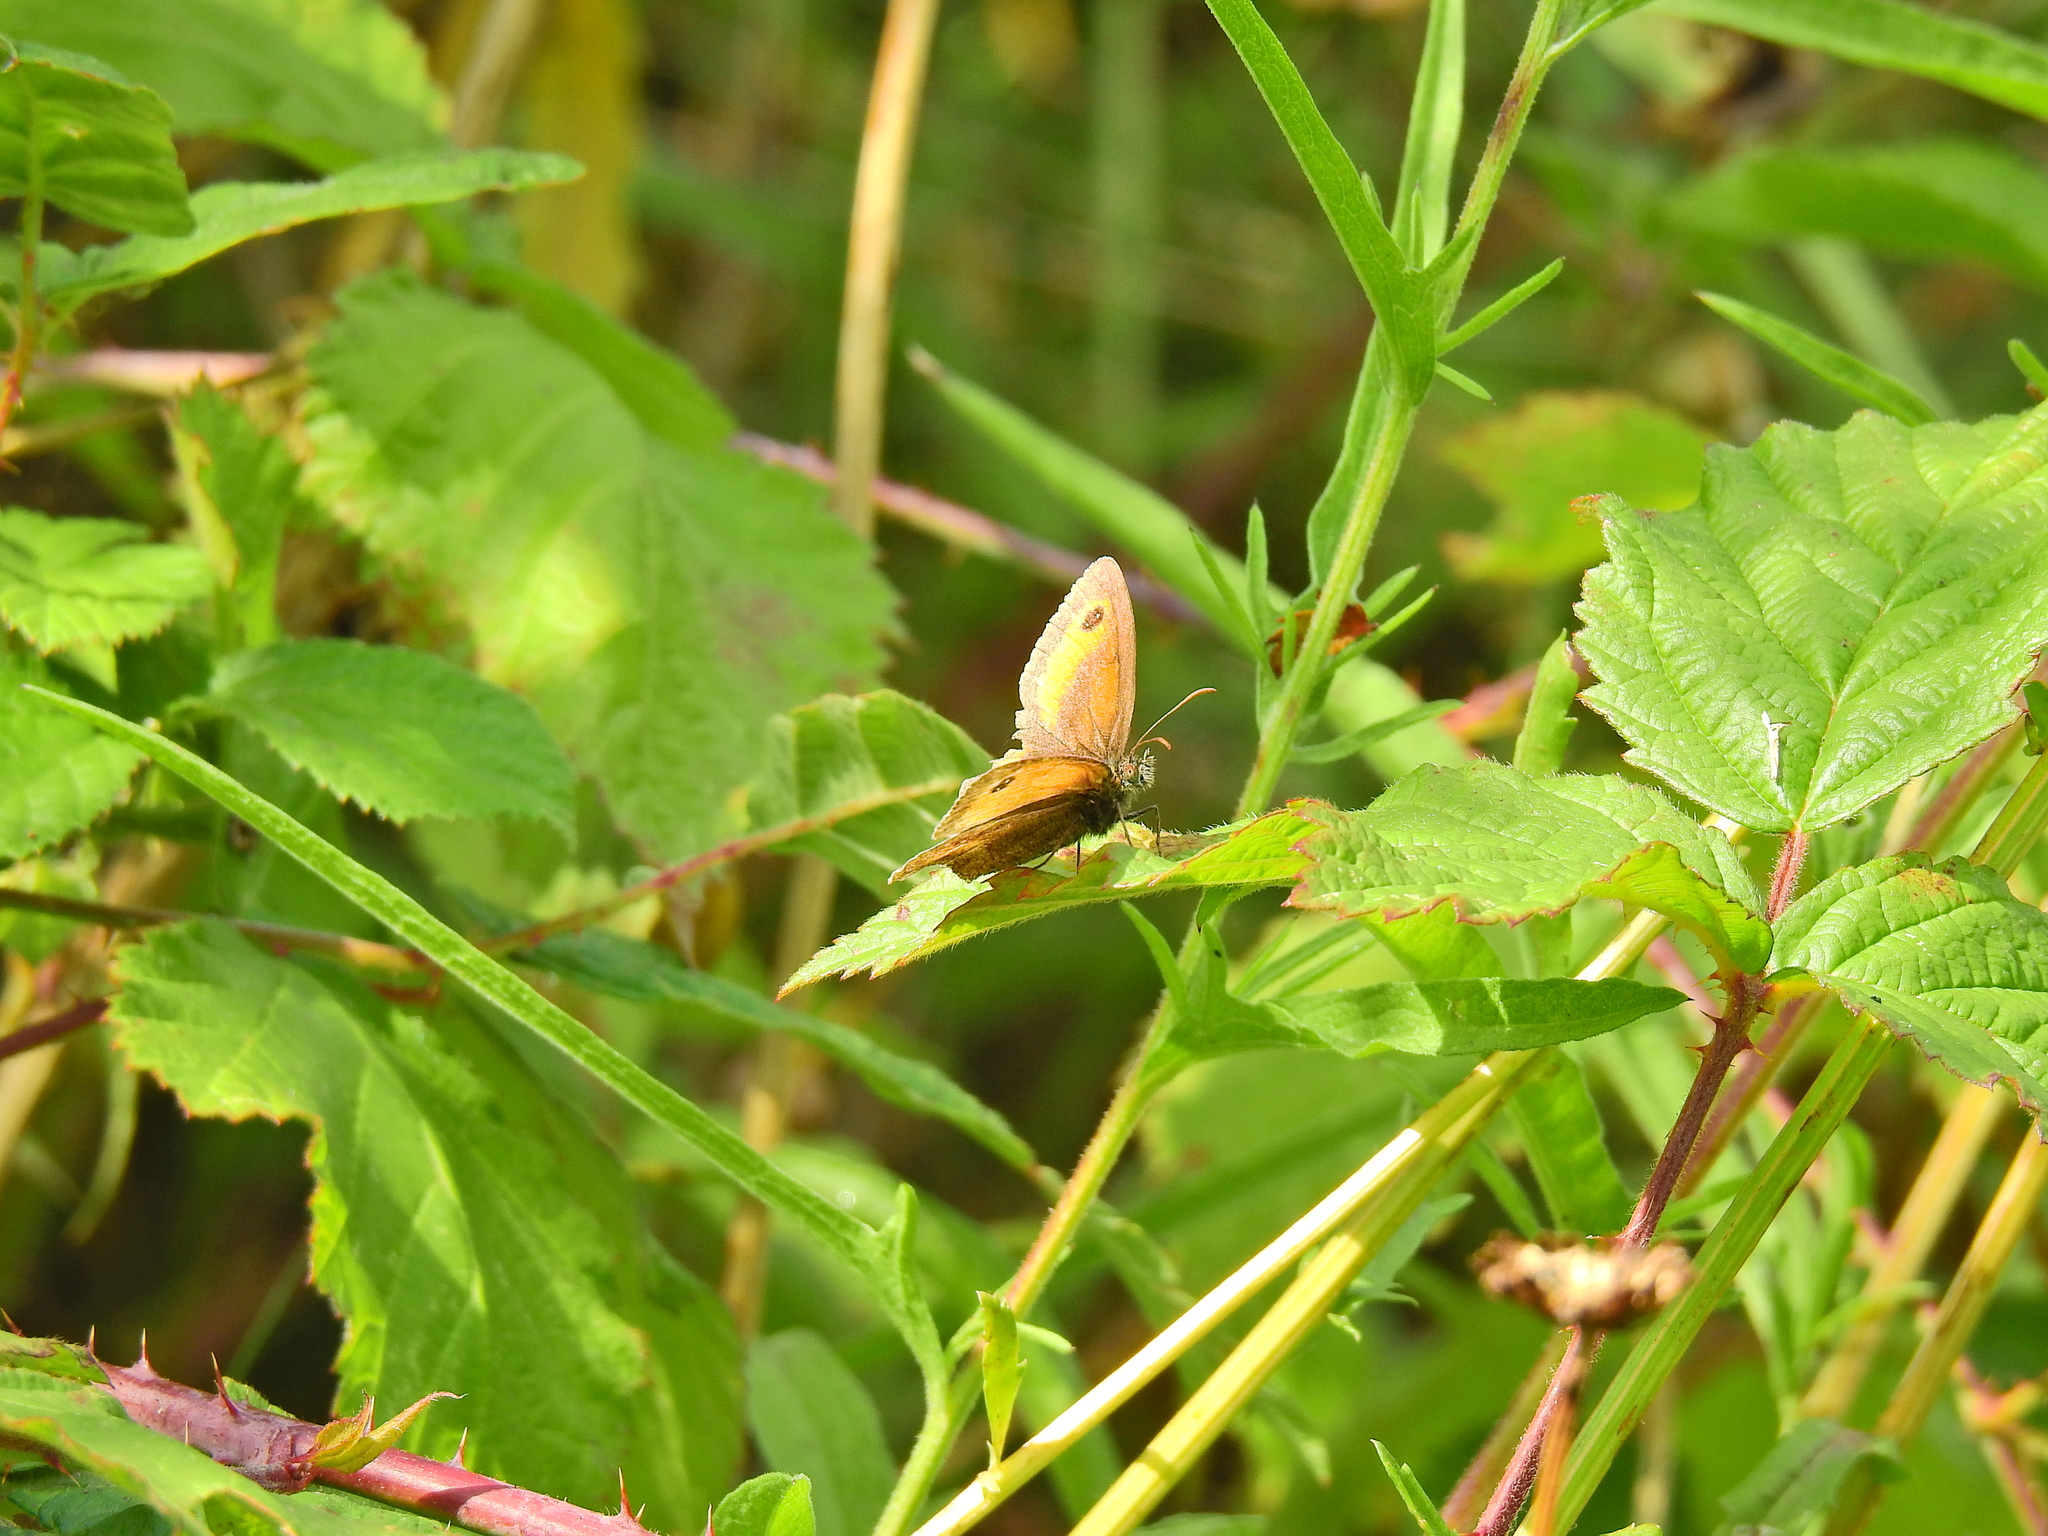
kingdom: Animalia
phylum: Arthropoda
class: Insecta
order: Lepidoptera
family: Nymphalidae
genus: Pyronia
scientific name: Pyronia tithonus
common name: Gatekeeper
